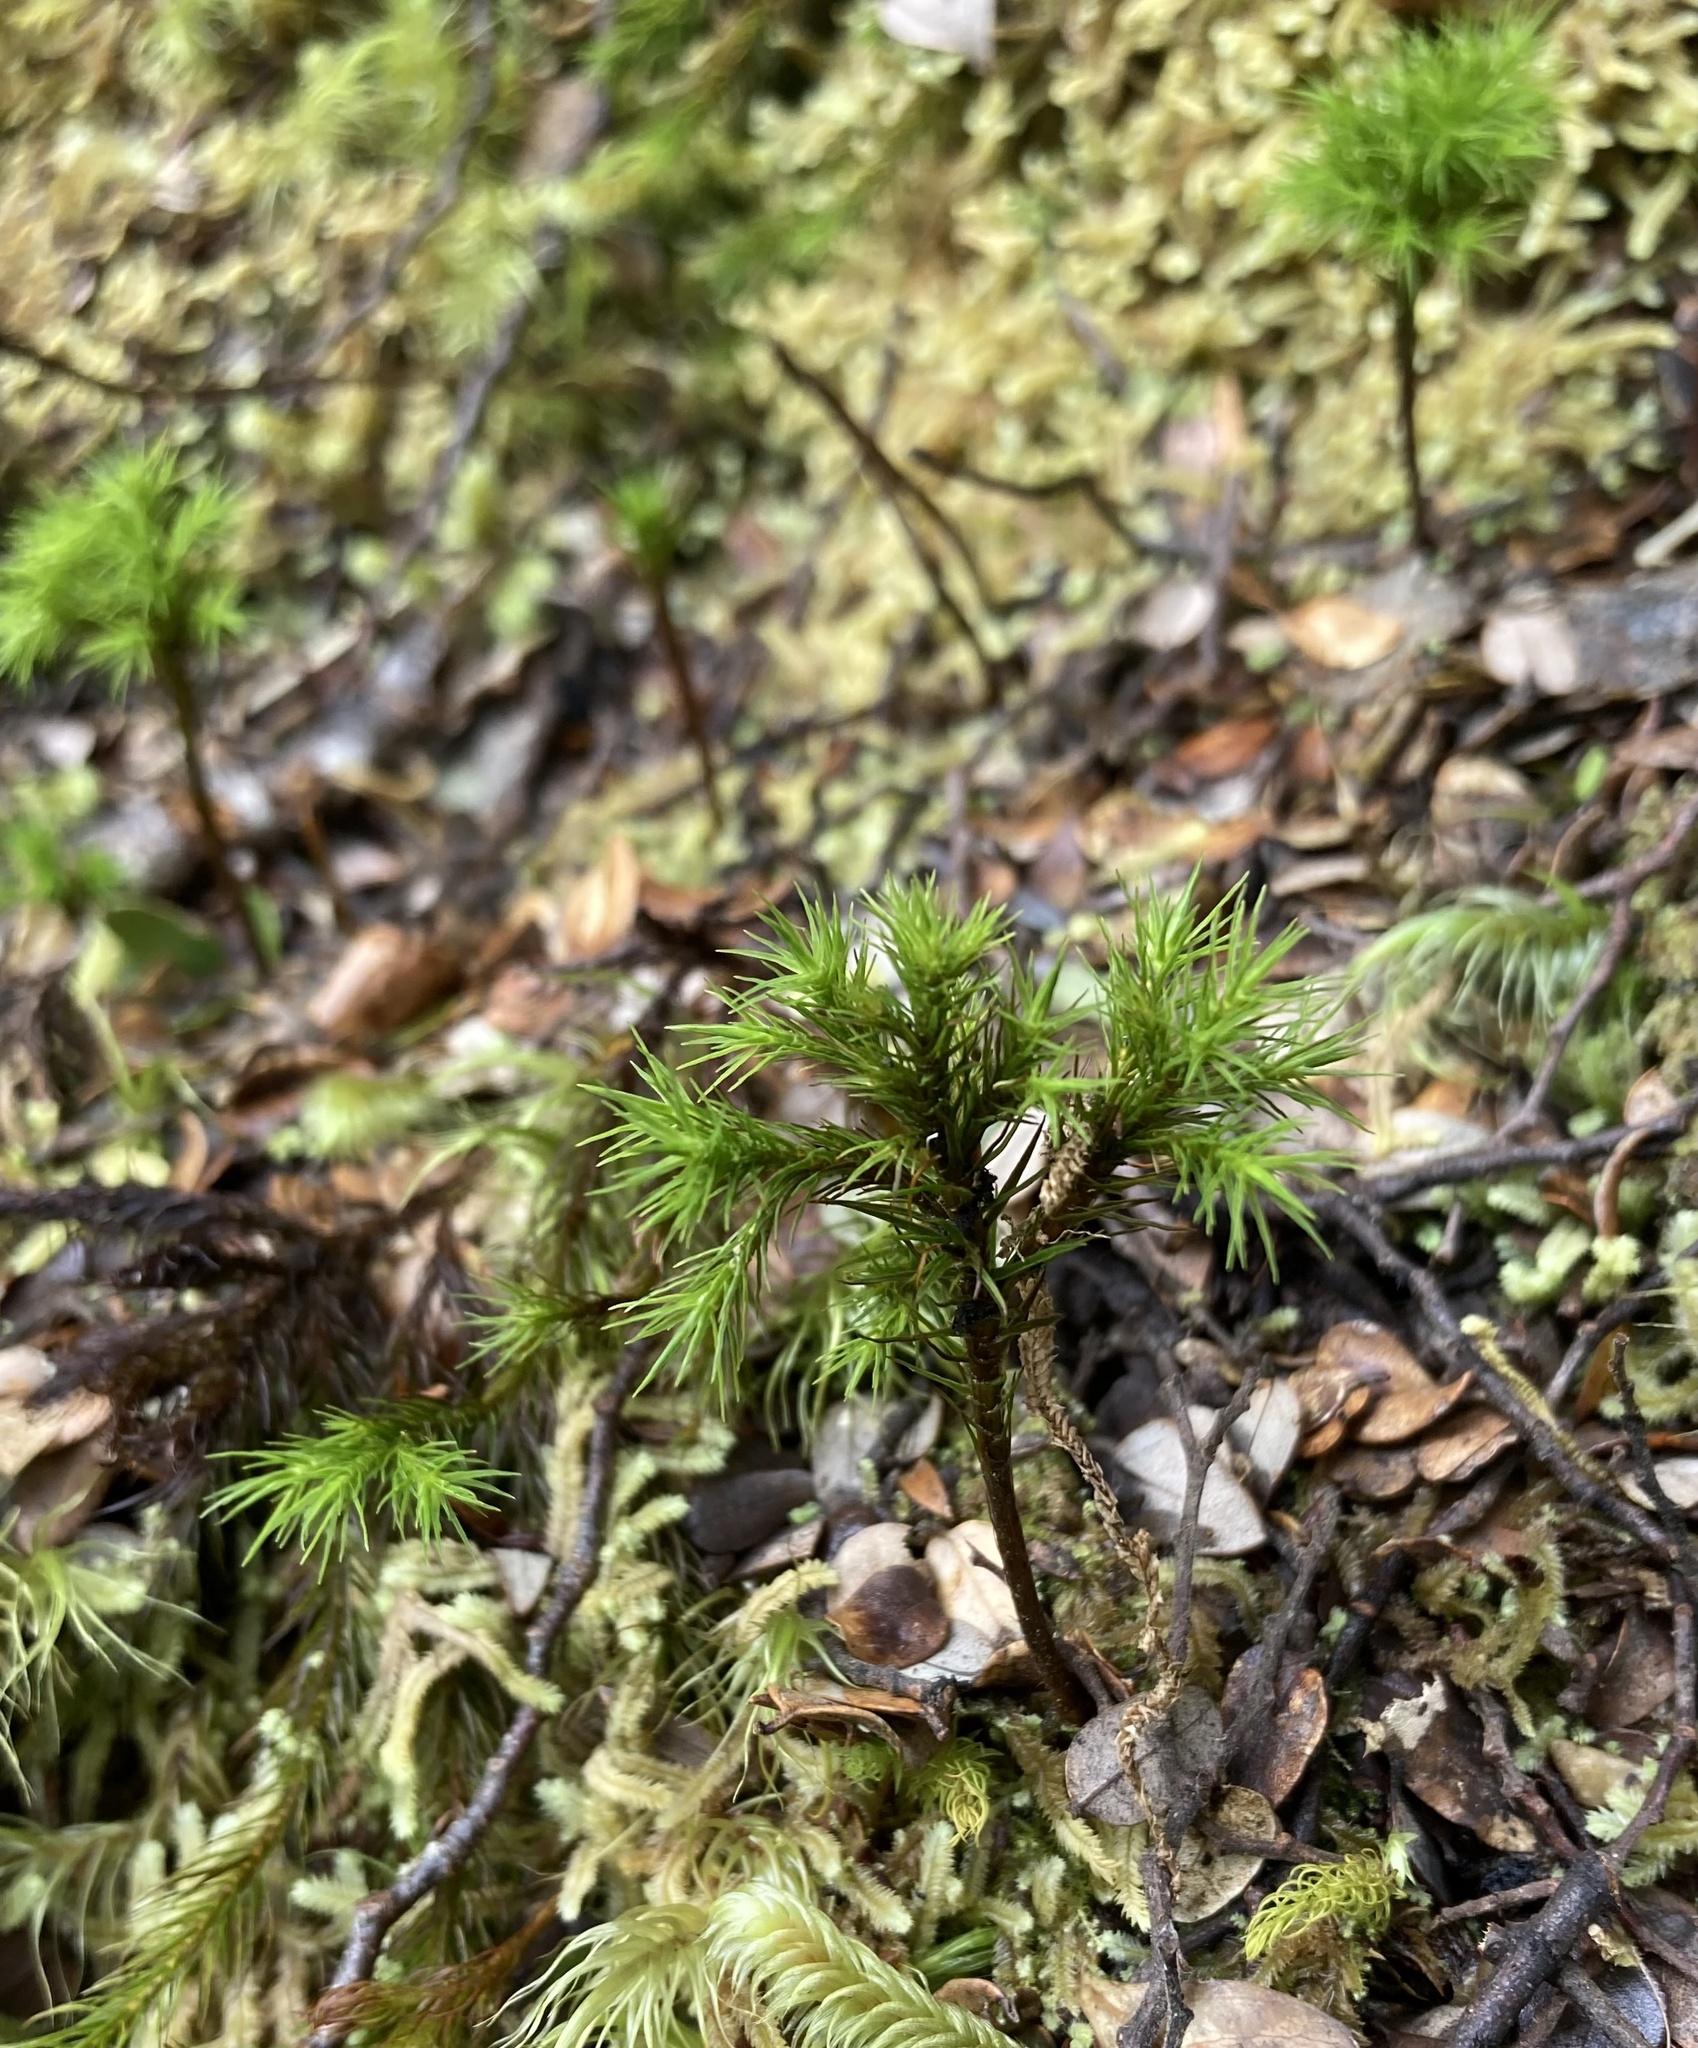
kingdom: Plantae
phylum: Bryophyta
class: Polytrichopsida
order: Polytrichales
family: Polytrichaceae
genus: Dendroligotrichum
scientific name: Dendroligotrichum tongariroense
